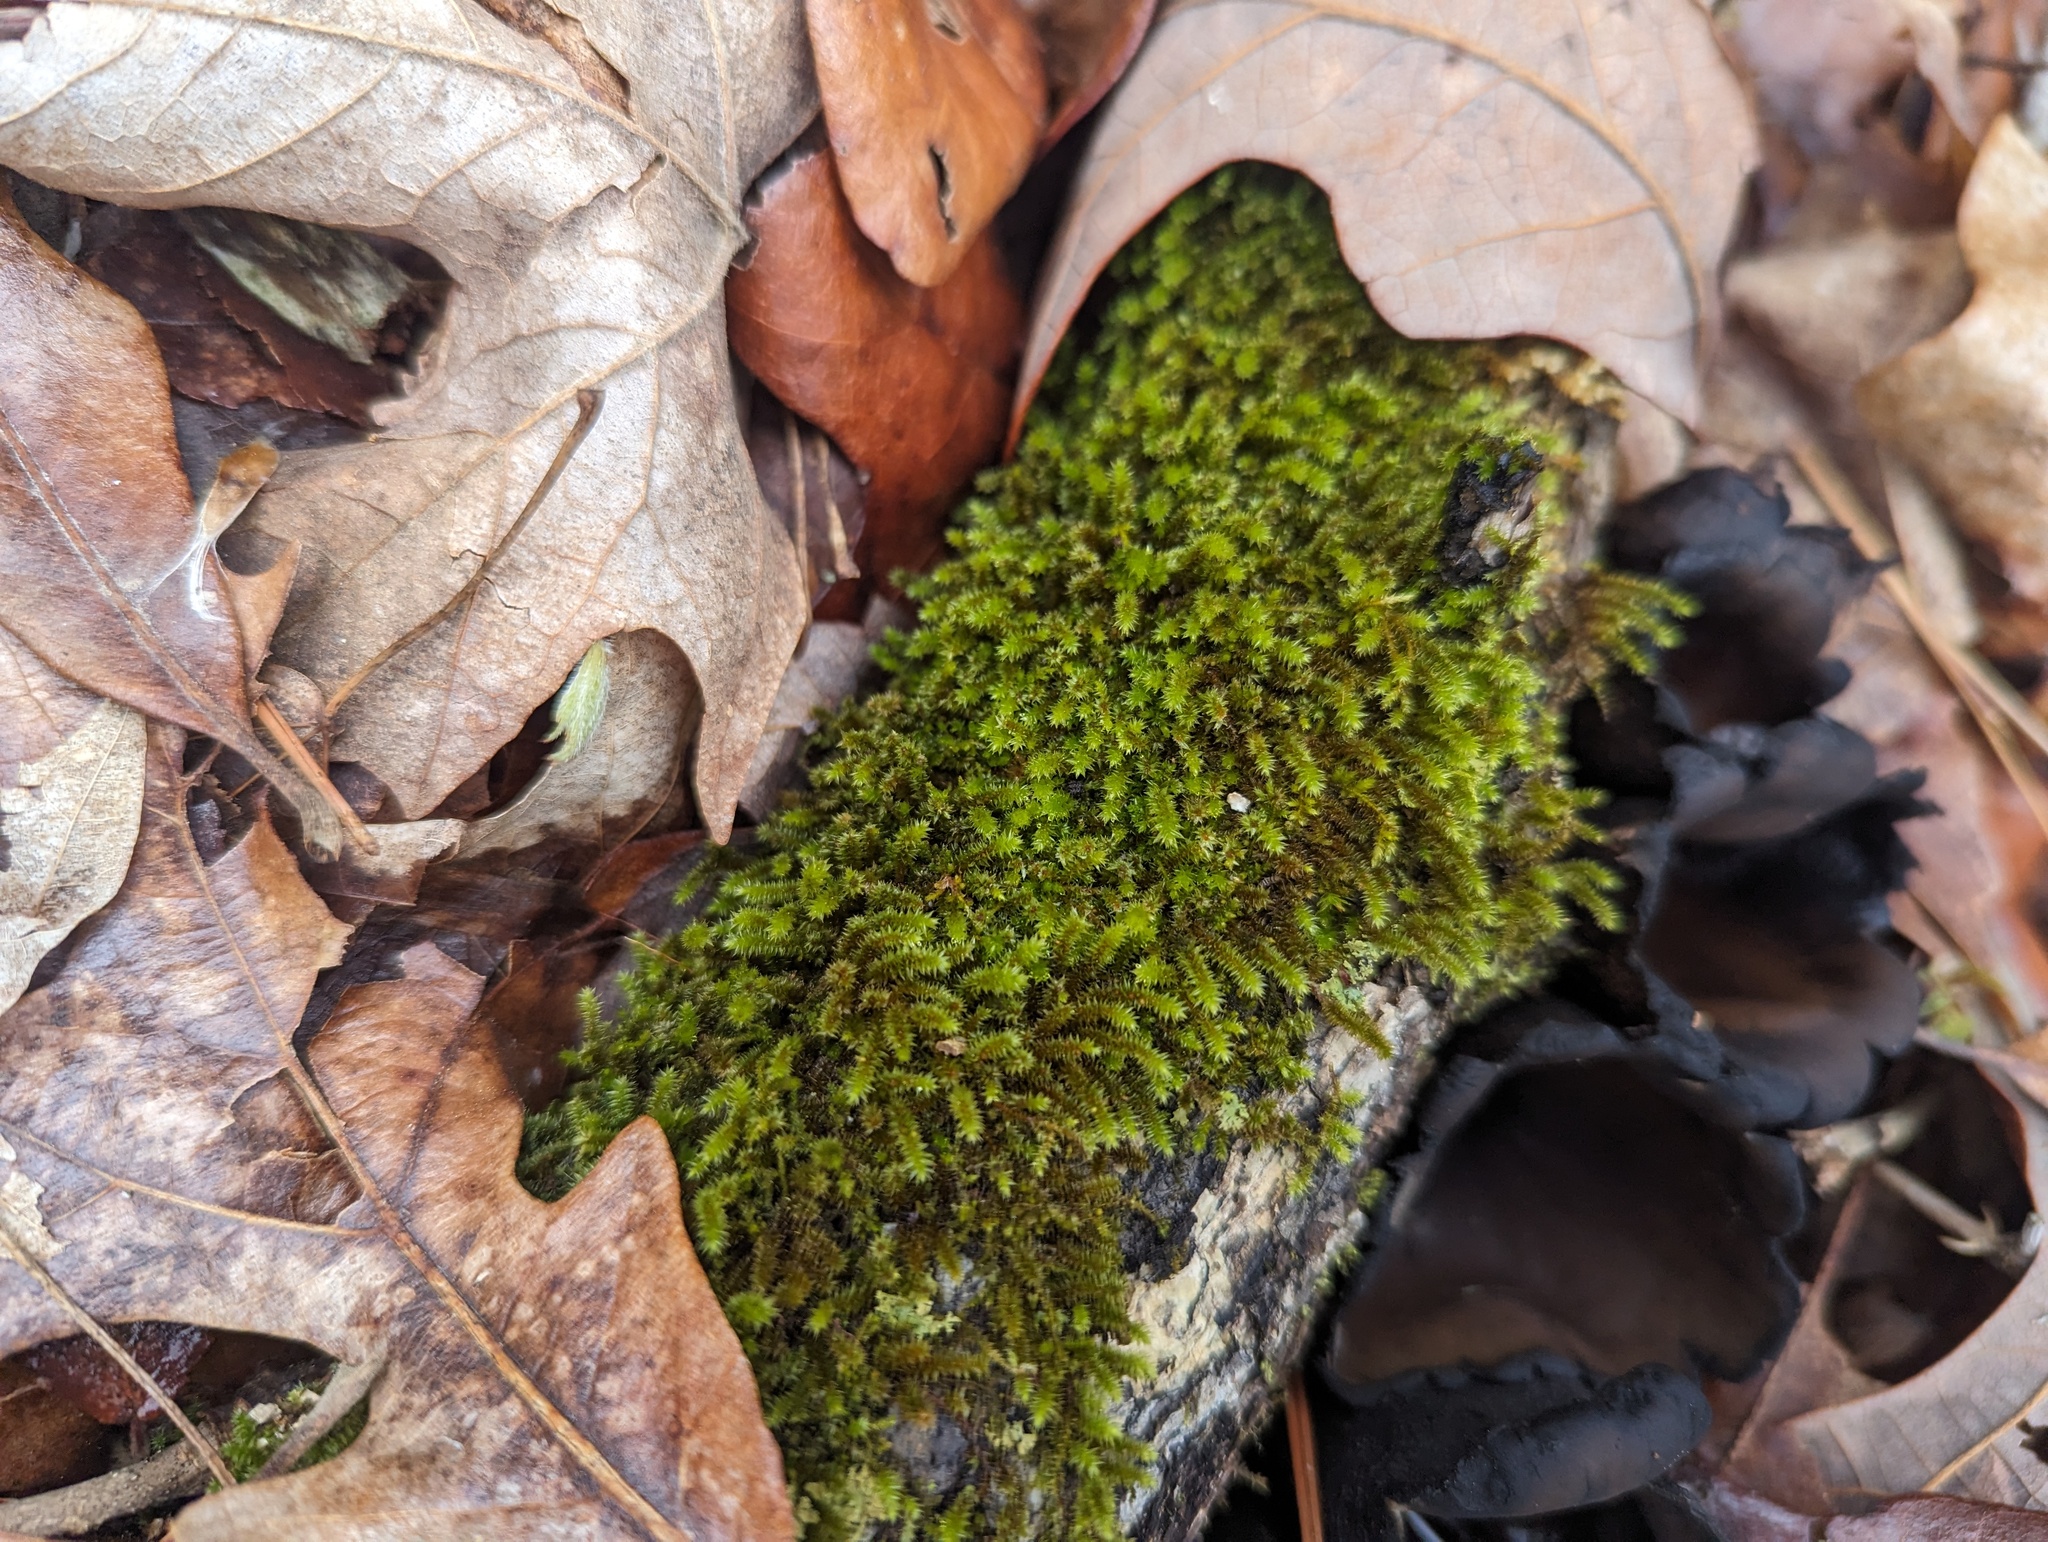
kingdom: Plantae
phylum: Bryophyta
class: Bryopsida
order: Hypnales
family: Leucodontaceae
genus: Leucodon
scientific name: Leucodon julaceus
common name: Smooth hook moss
